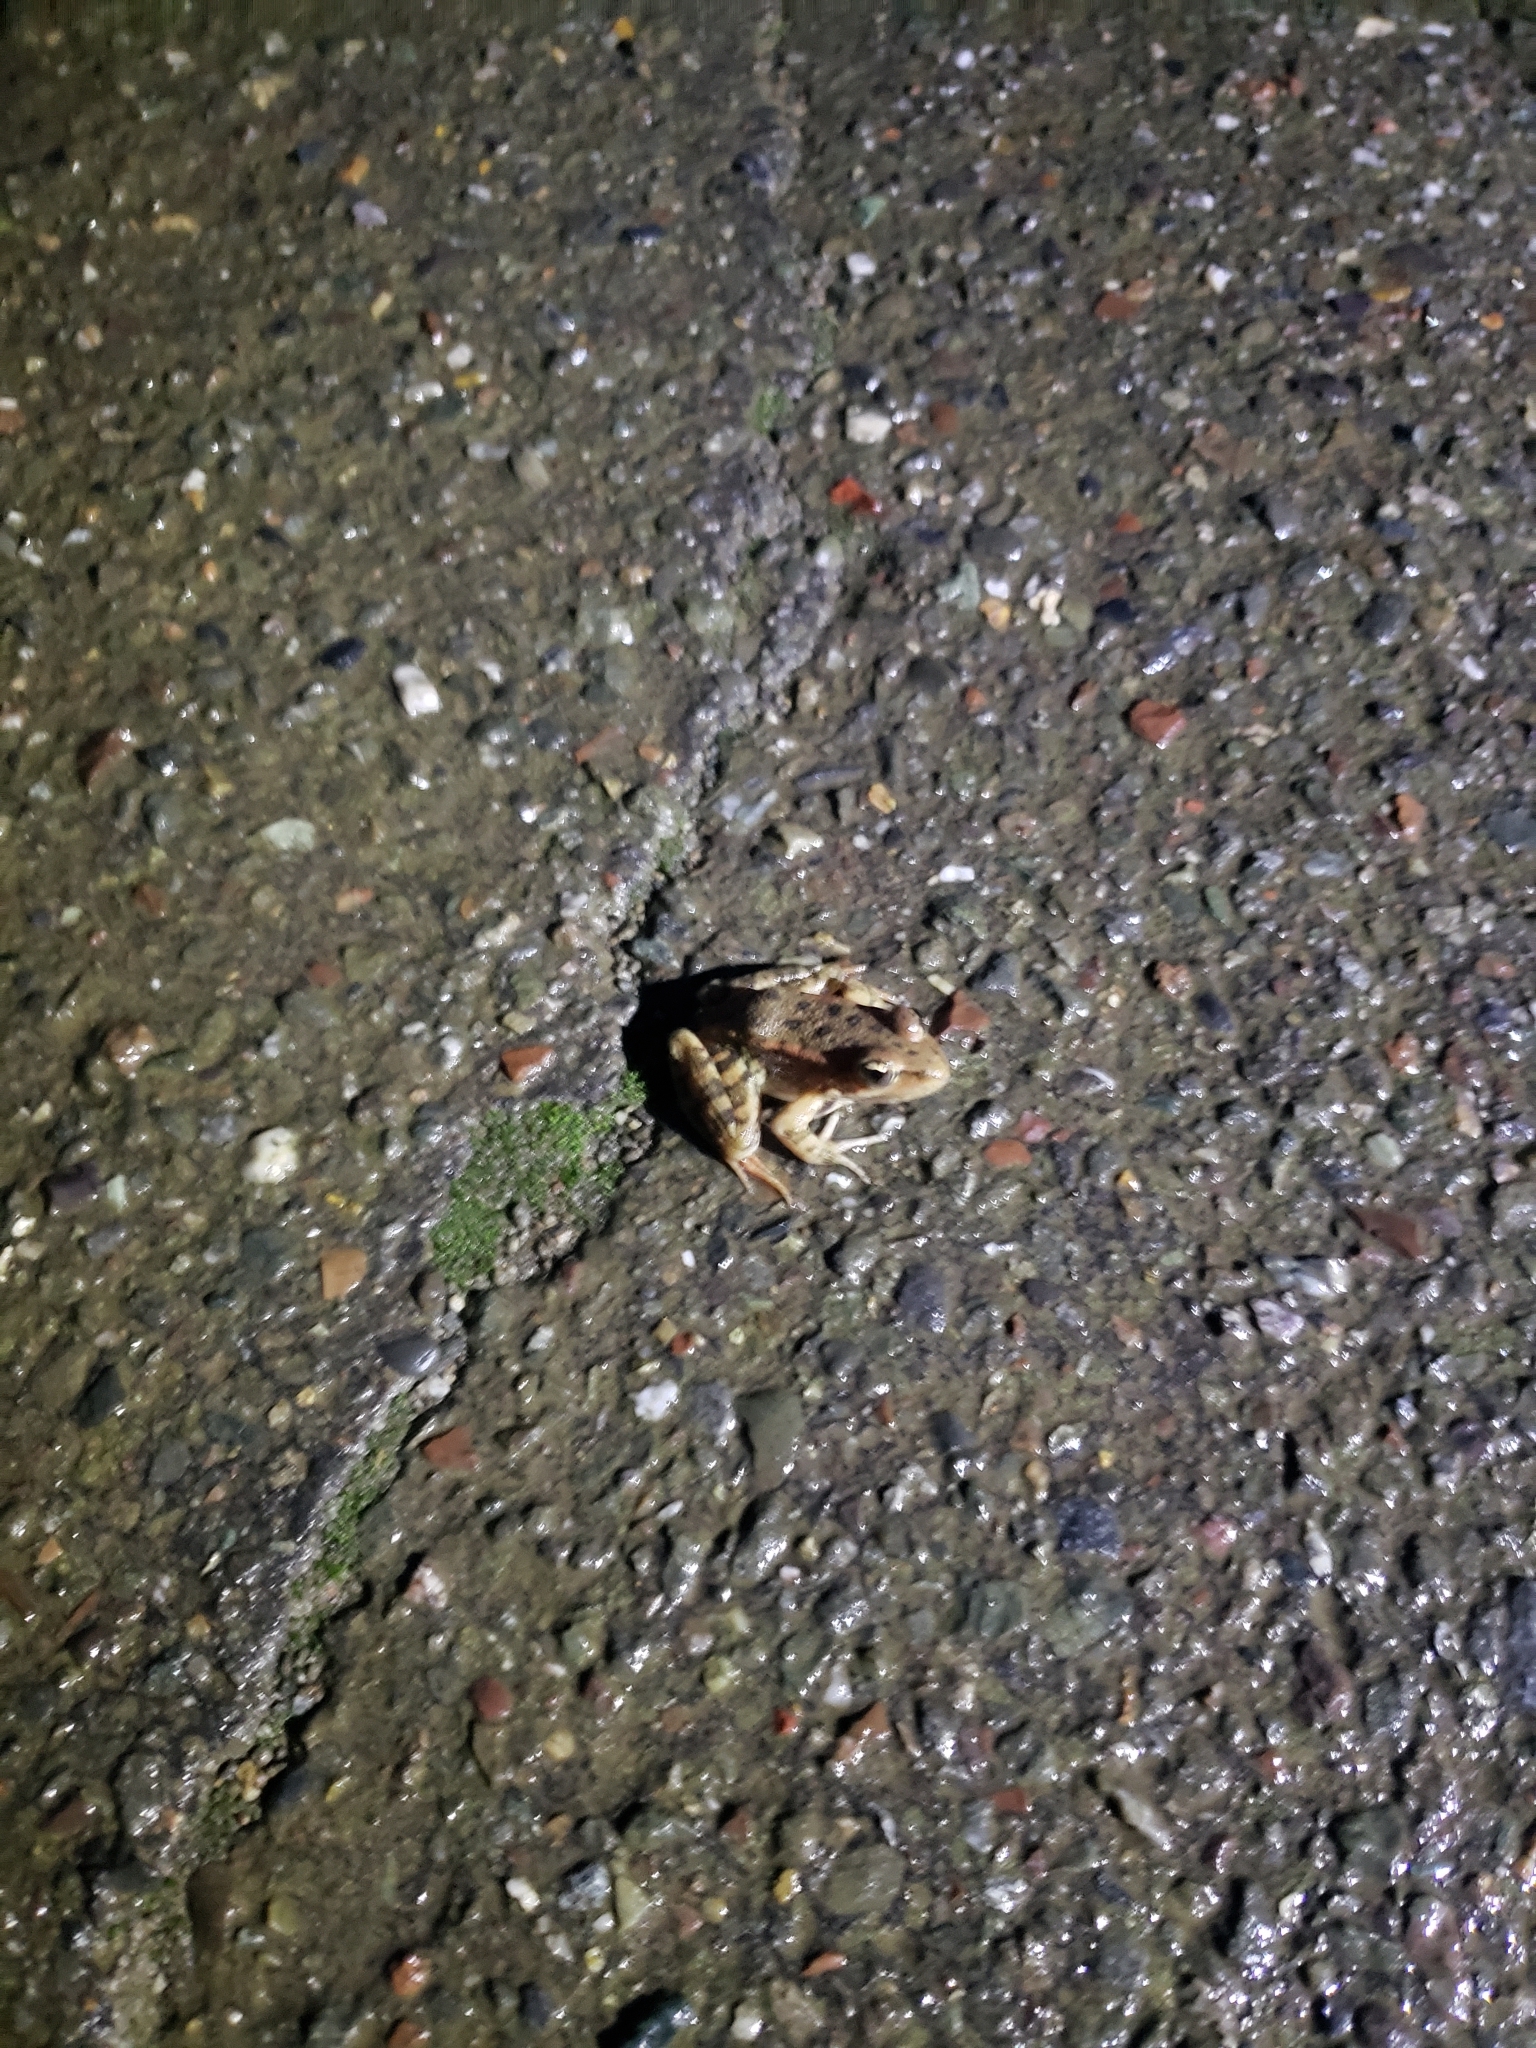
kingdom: Animalia
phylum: Chordata
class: Amphibia
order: Anura
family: Ranidae
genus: Rana
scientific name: Rana draytonii
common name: California red-legged frog
